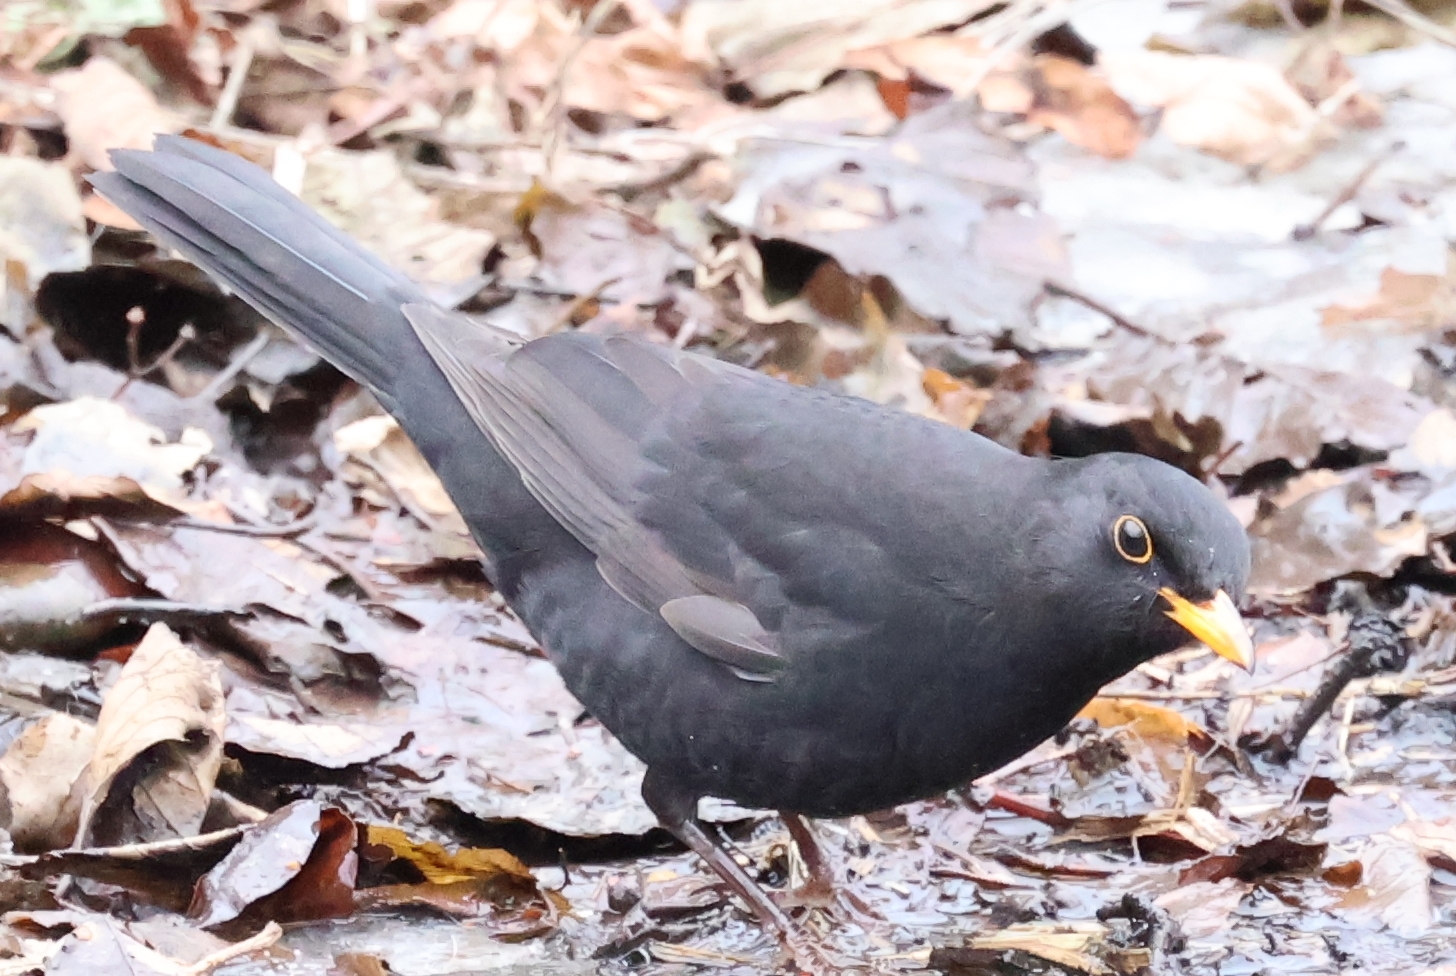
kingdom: Animalia
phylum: Chordata
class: Aves
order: Passeriformes
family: Turdidae
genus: Turdus
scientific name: Turdus merula
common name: Common blackbird
